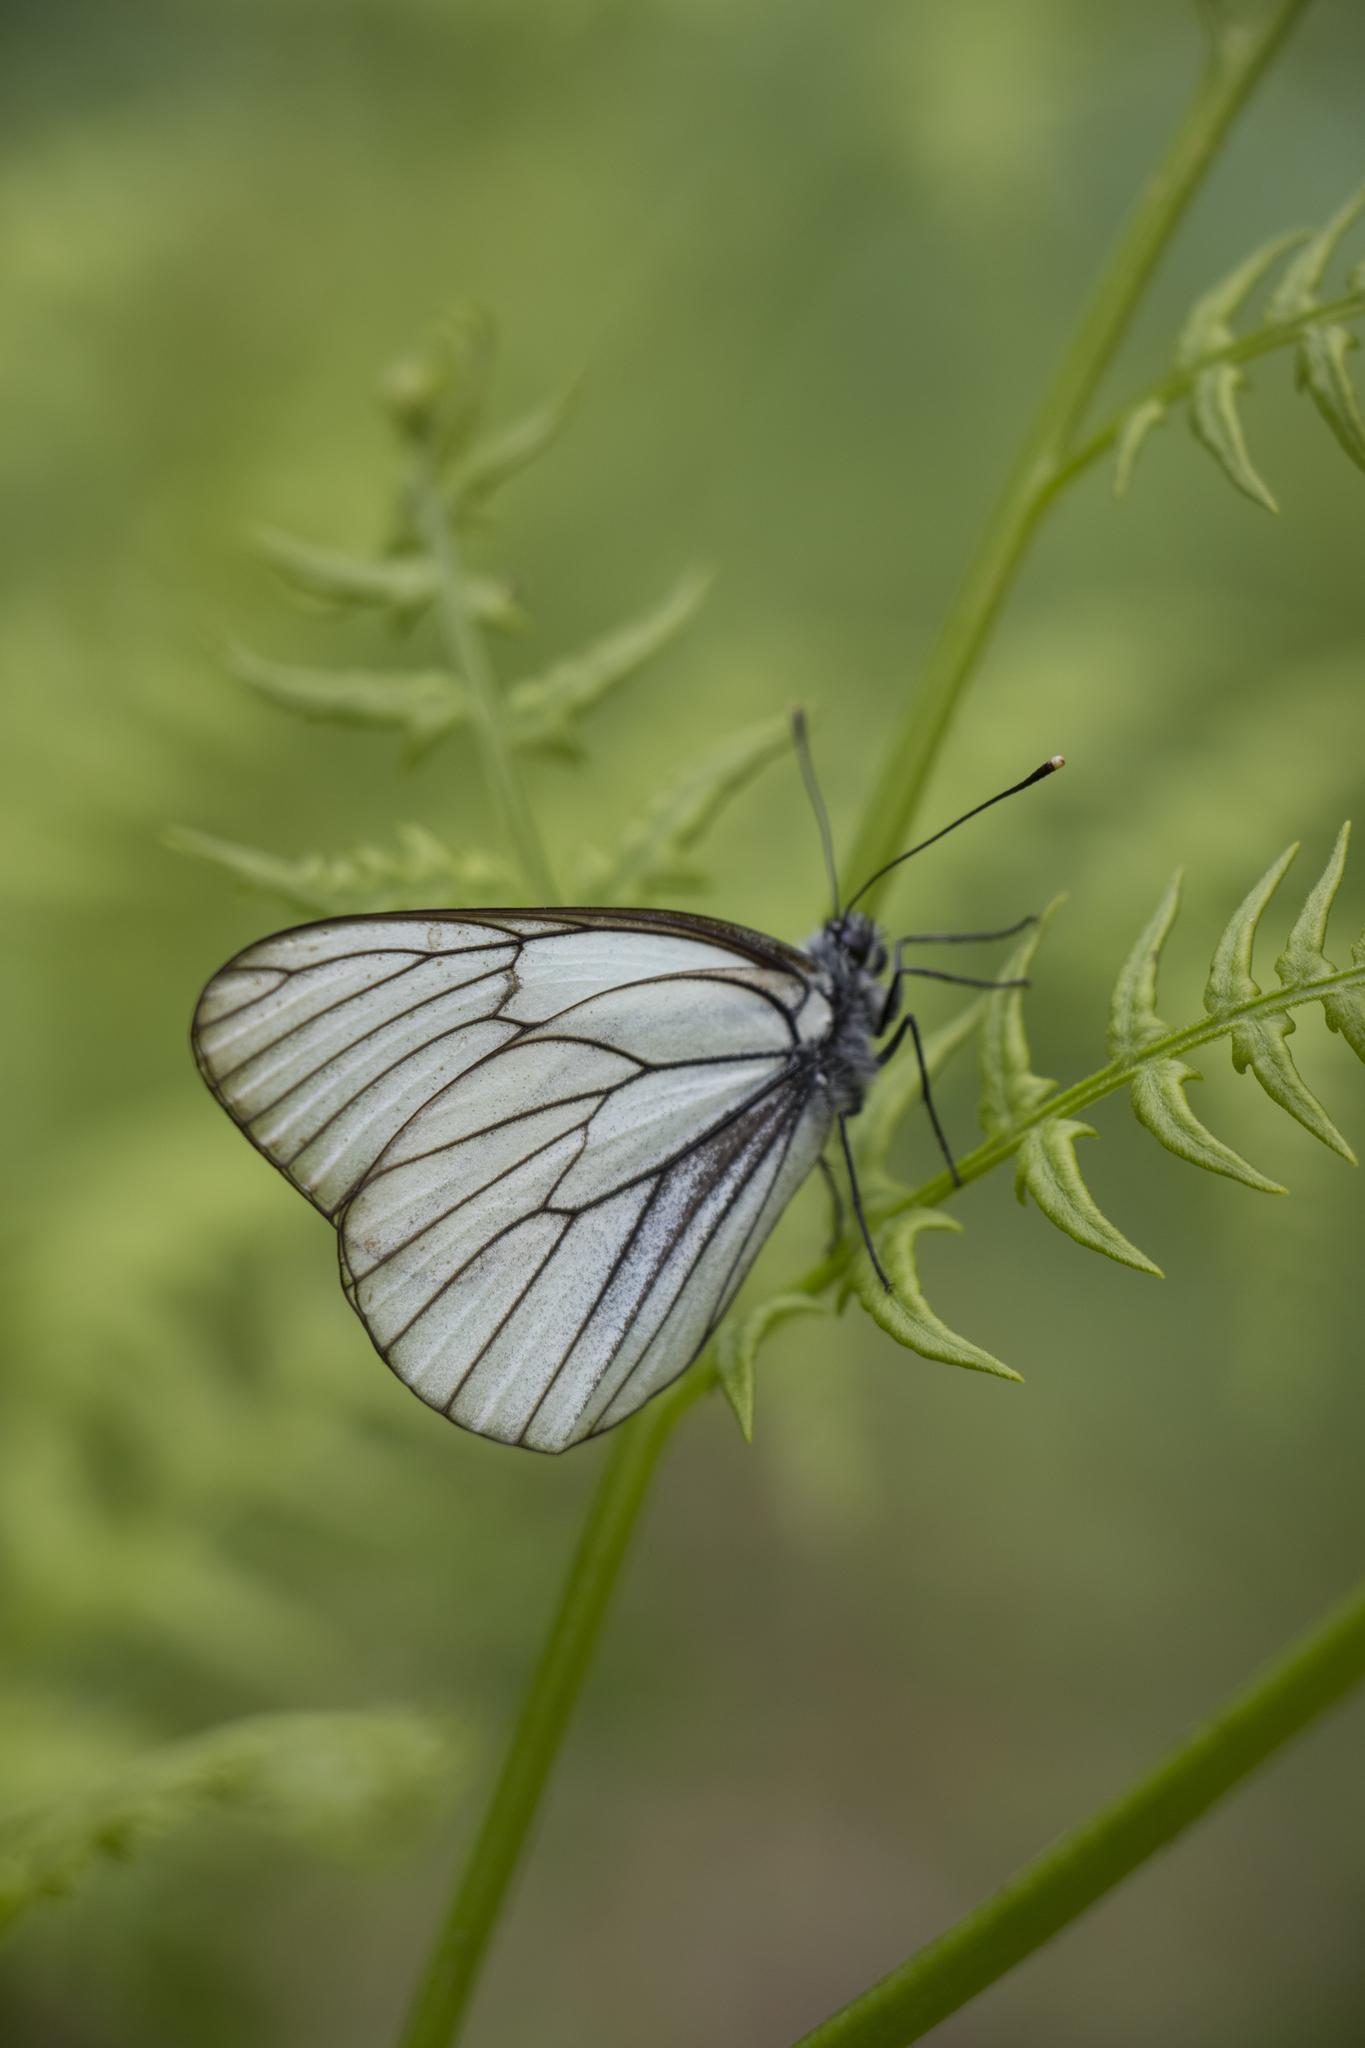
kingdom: Animalia
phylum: Arthropoda
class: Insecta
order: Lepidoptera
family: Pieridae
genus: Aporia
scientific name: Aporia crataegi
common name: Black-veined white
